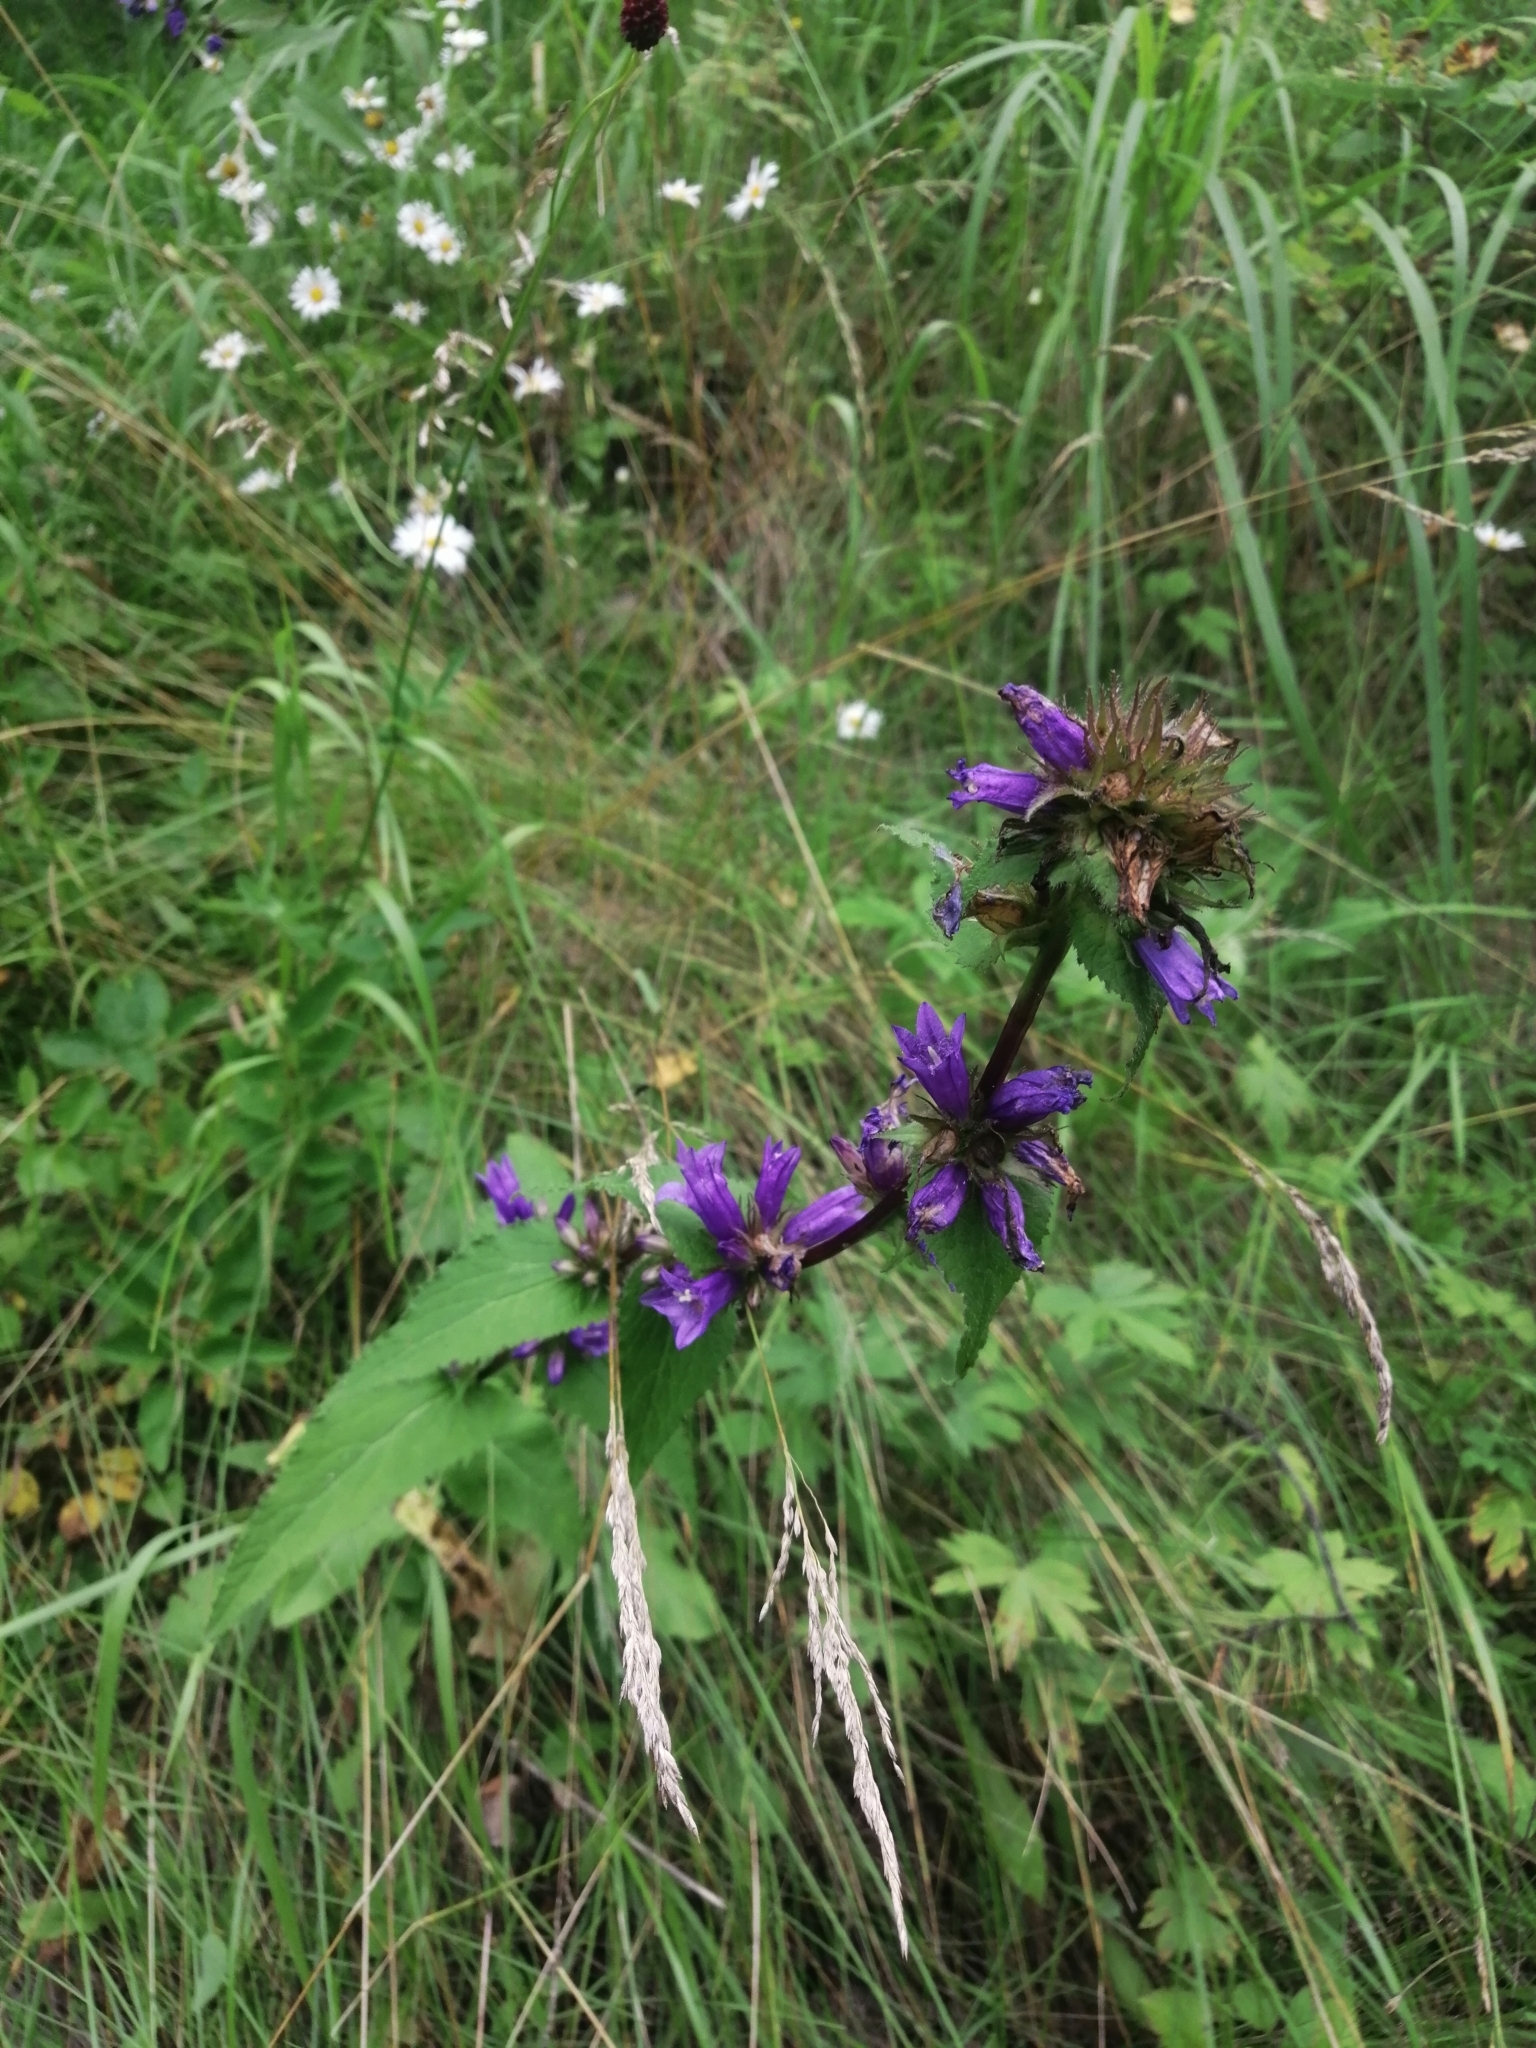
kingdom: Plantae
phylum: Tracheophyta
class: Magnoliopsida
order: Asterales
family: Campanulaceae
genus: Campanula
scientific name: Campanula glomerata
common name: Clustered bellflower
